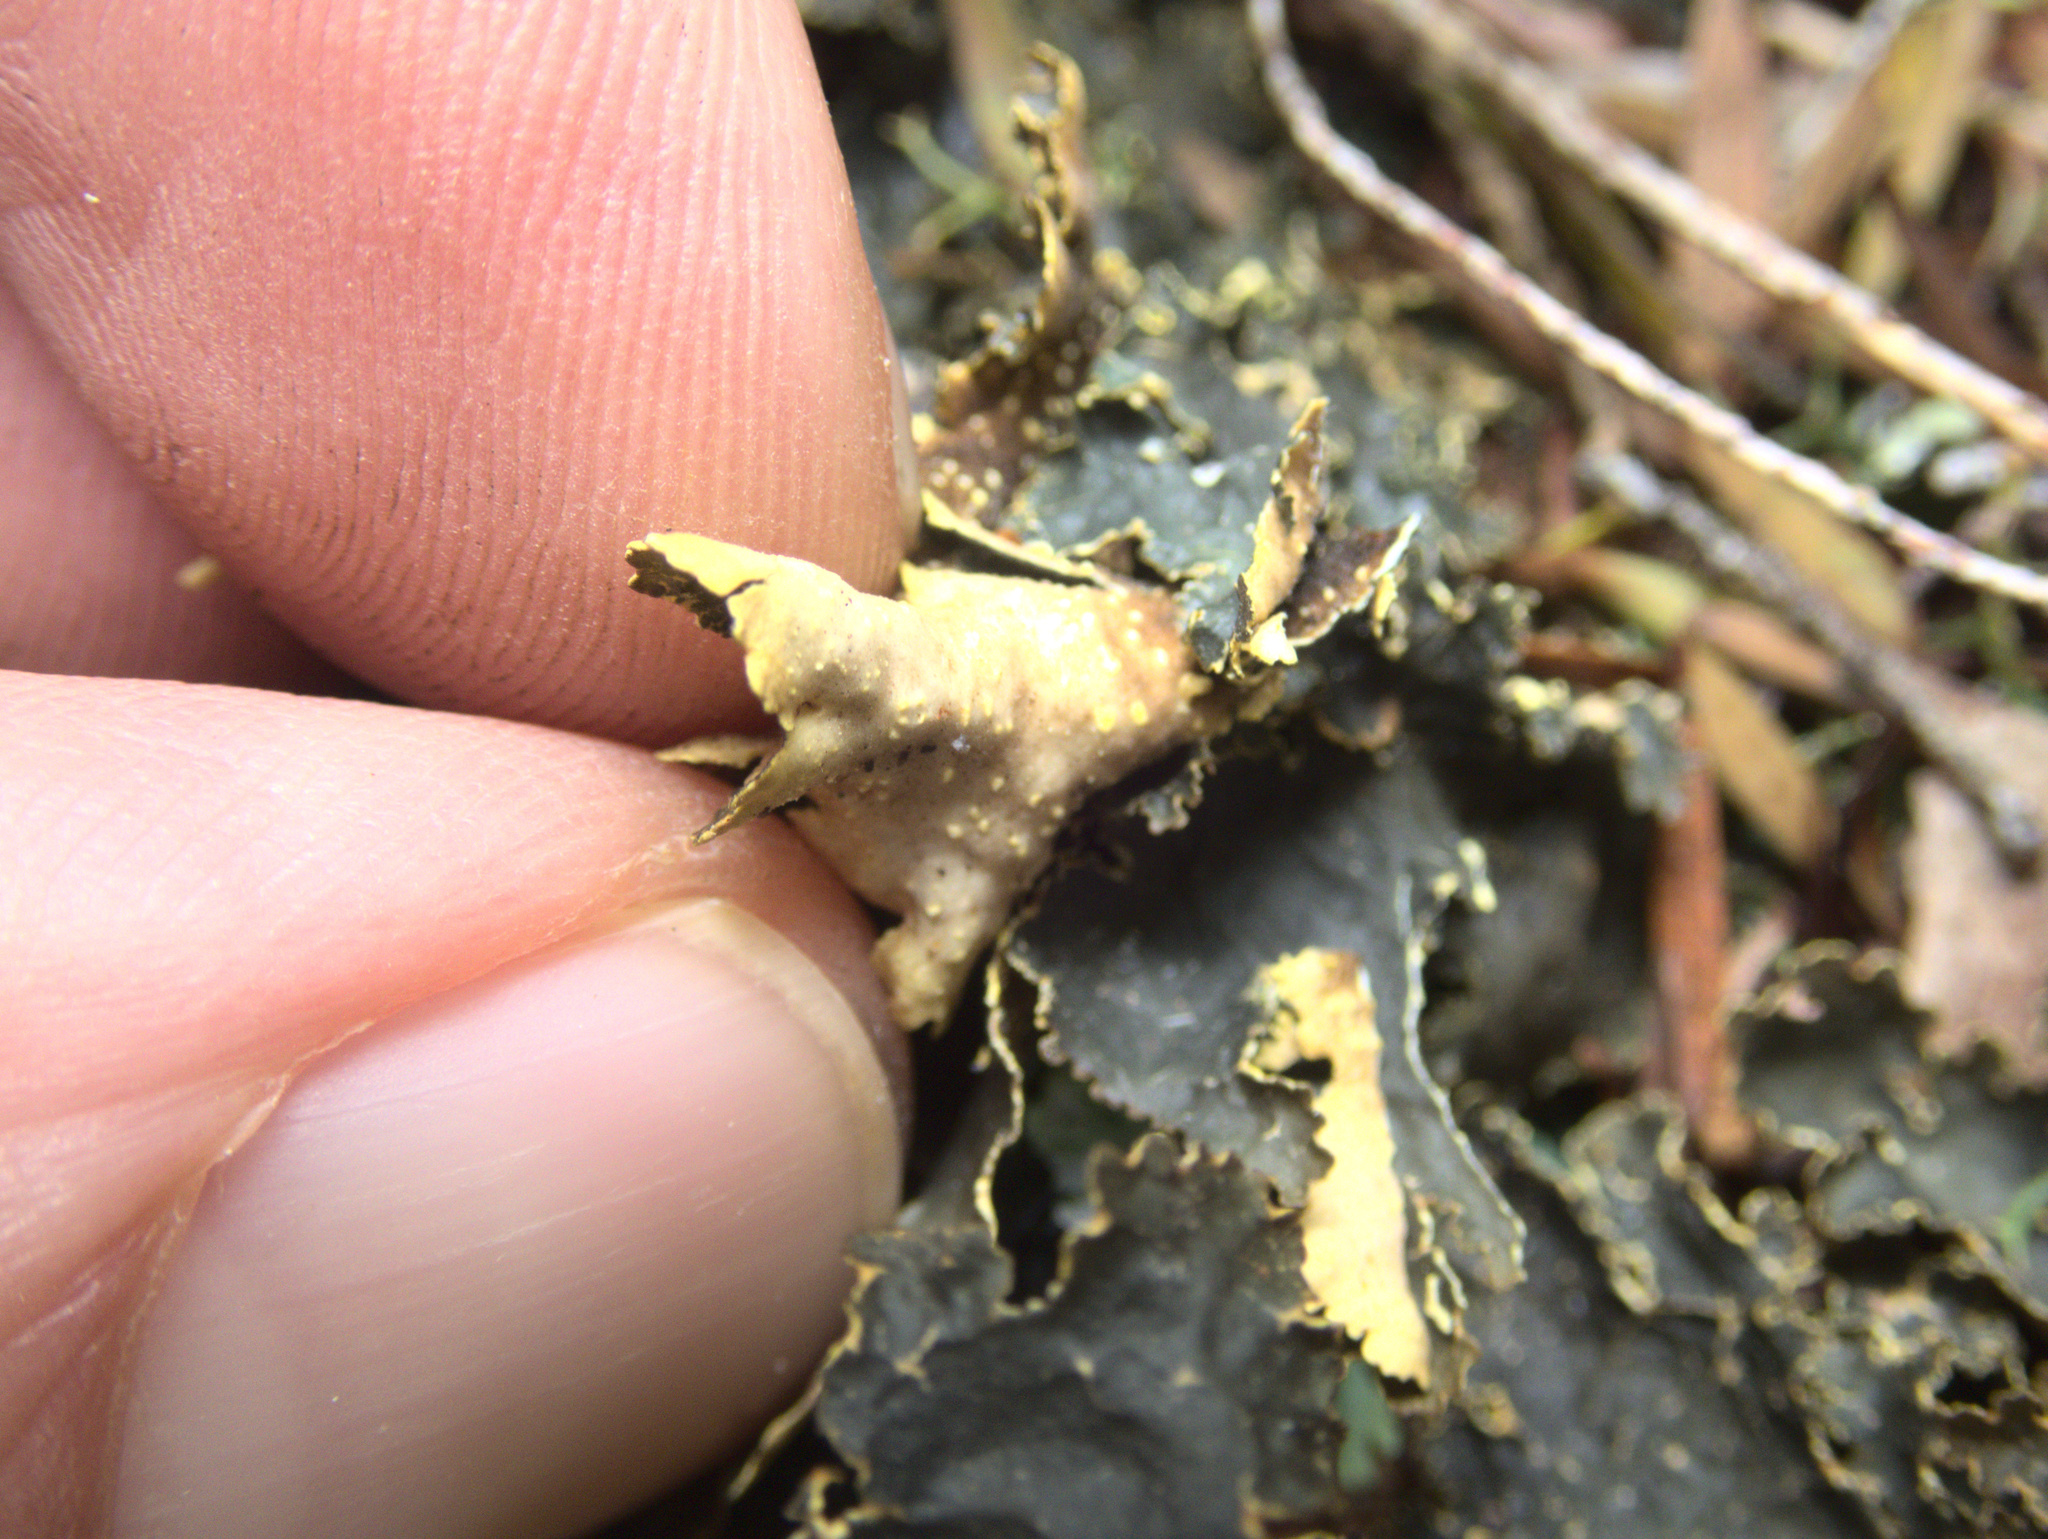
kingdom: Fungi
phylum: Ascomycota
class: Lecanoromycetes
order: Peltigerales
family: Lobariaceae
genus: Pseudocyphellaria
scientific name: Pseudocyphellaria neglecta
